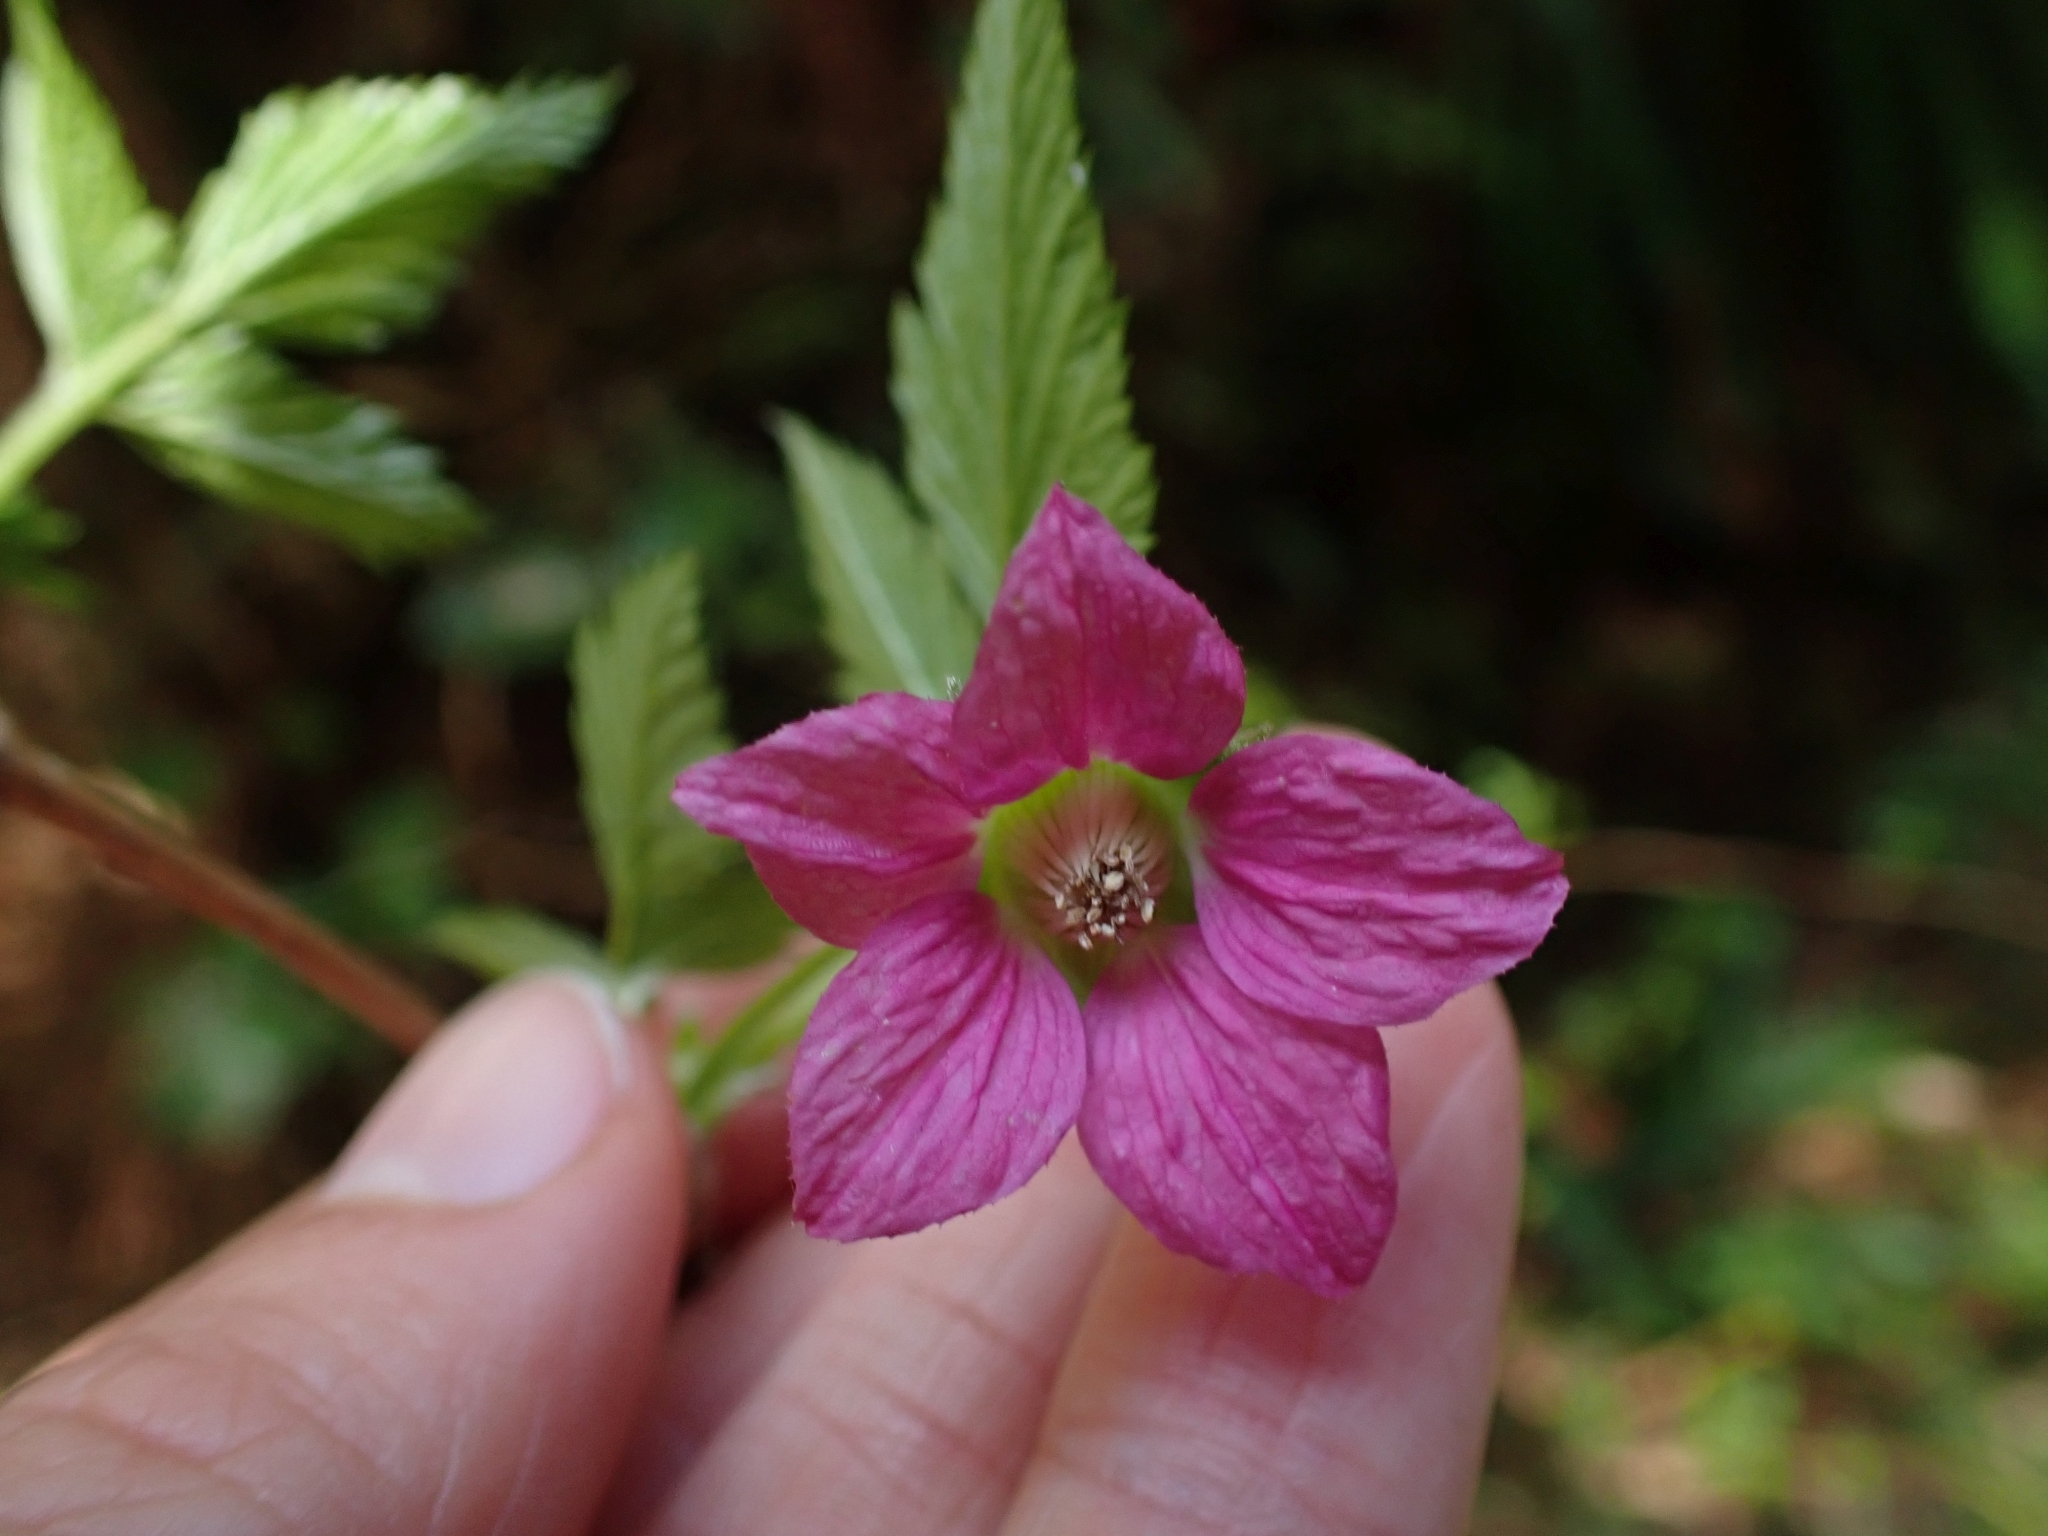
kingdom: Plantae
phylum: Tracheophyta
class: Magnoliopsida
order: Rosales
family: Rosaceae
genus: Rubus
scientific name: Rubus spectabilis
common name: Salmonberry
